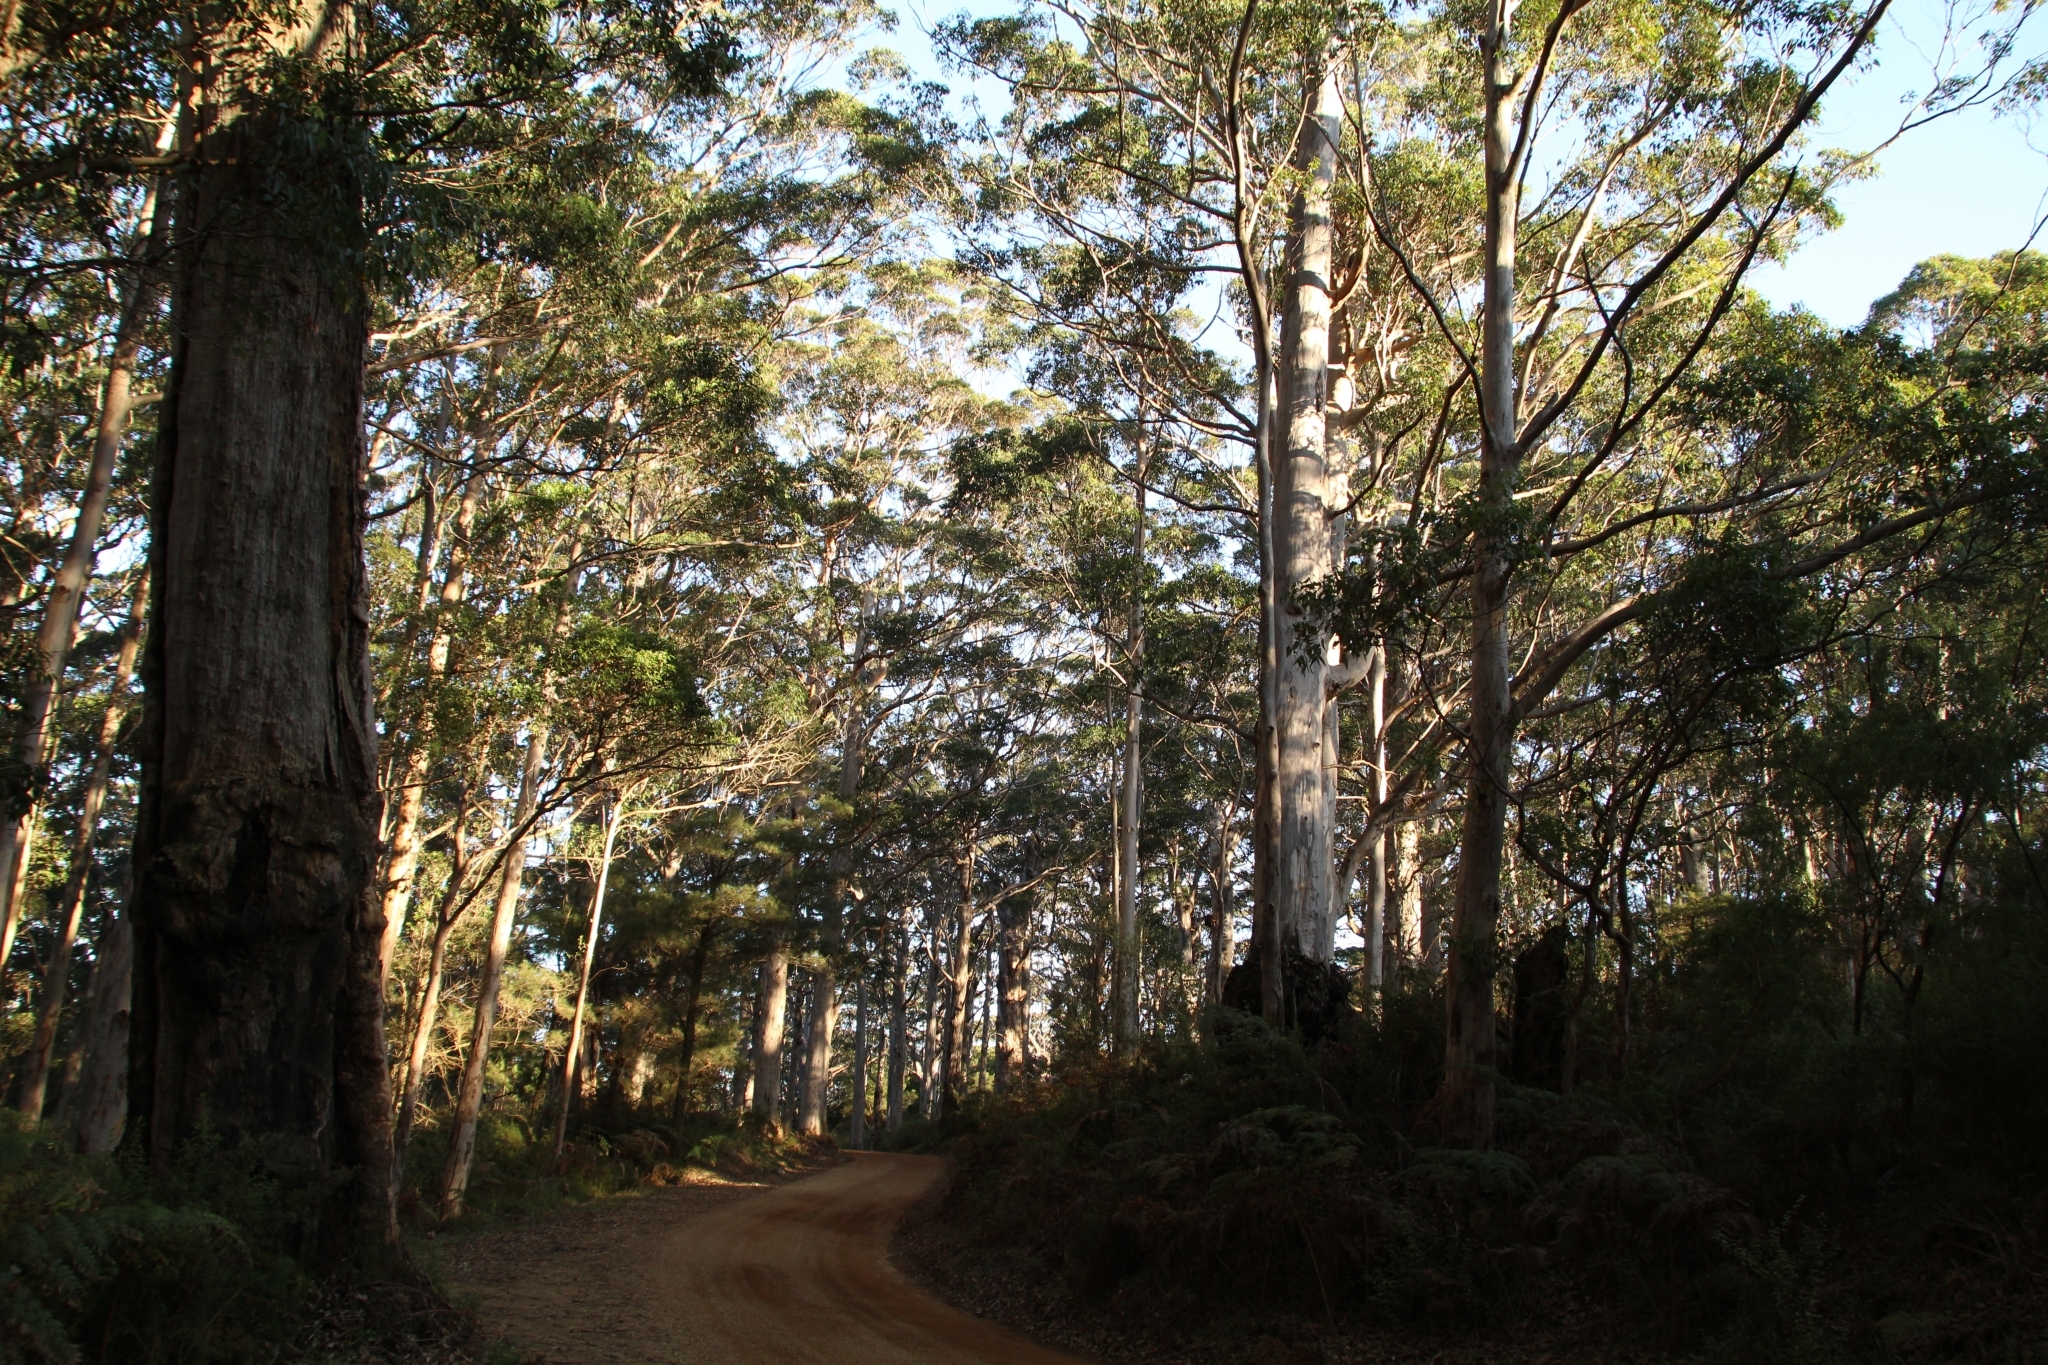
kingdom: Plantae
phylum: Tracheophyta
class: Magnoliopsida
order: Myrtales
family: Myrtaceae
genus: Eucalyptus
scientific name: Eucalyptus diversicolor
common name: Karri
